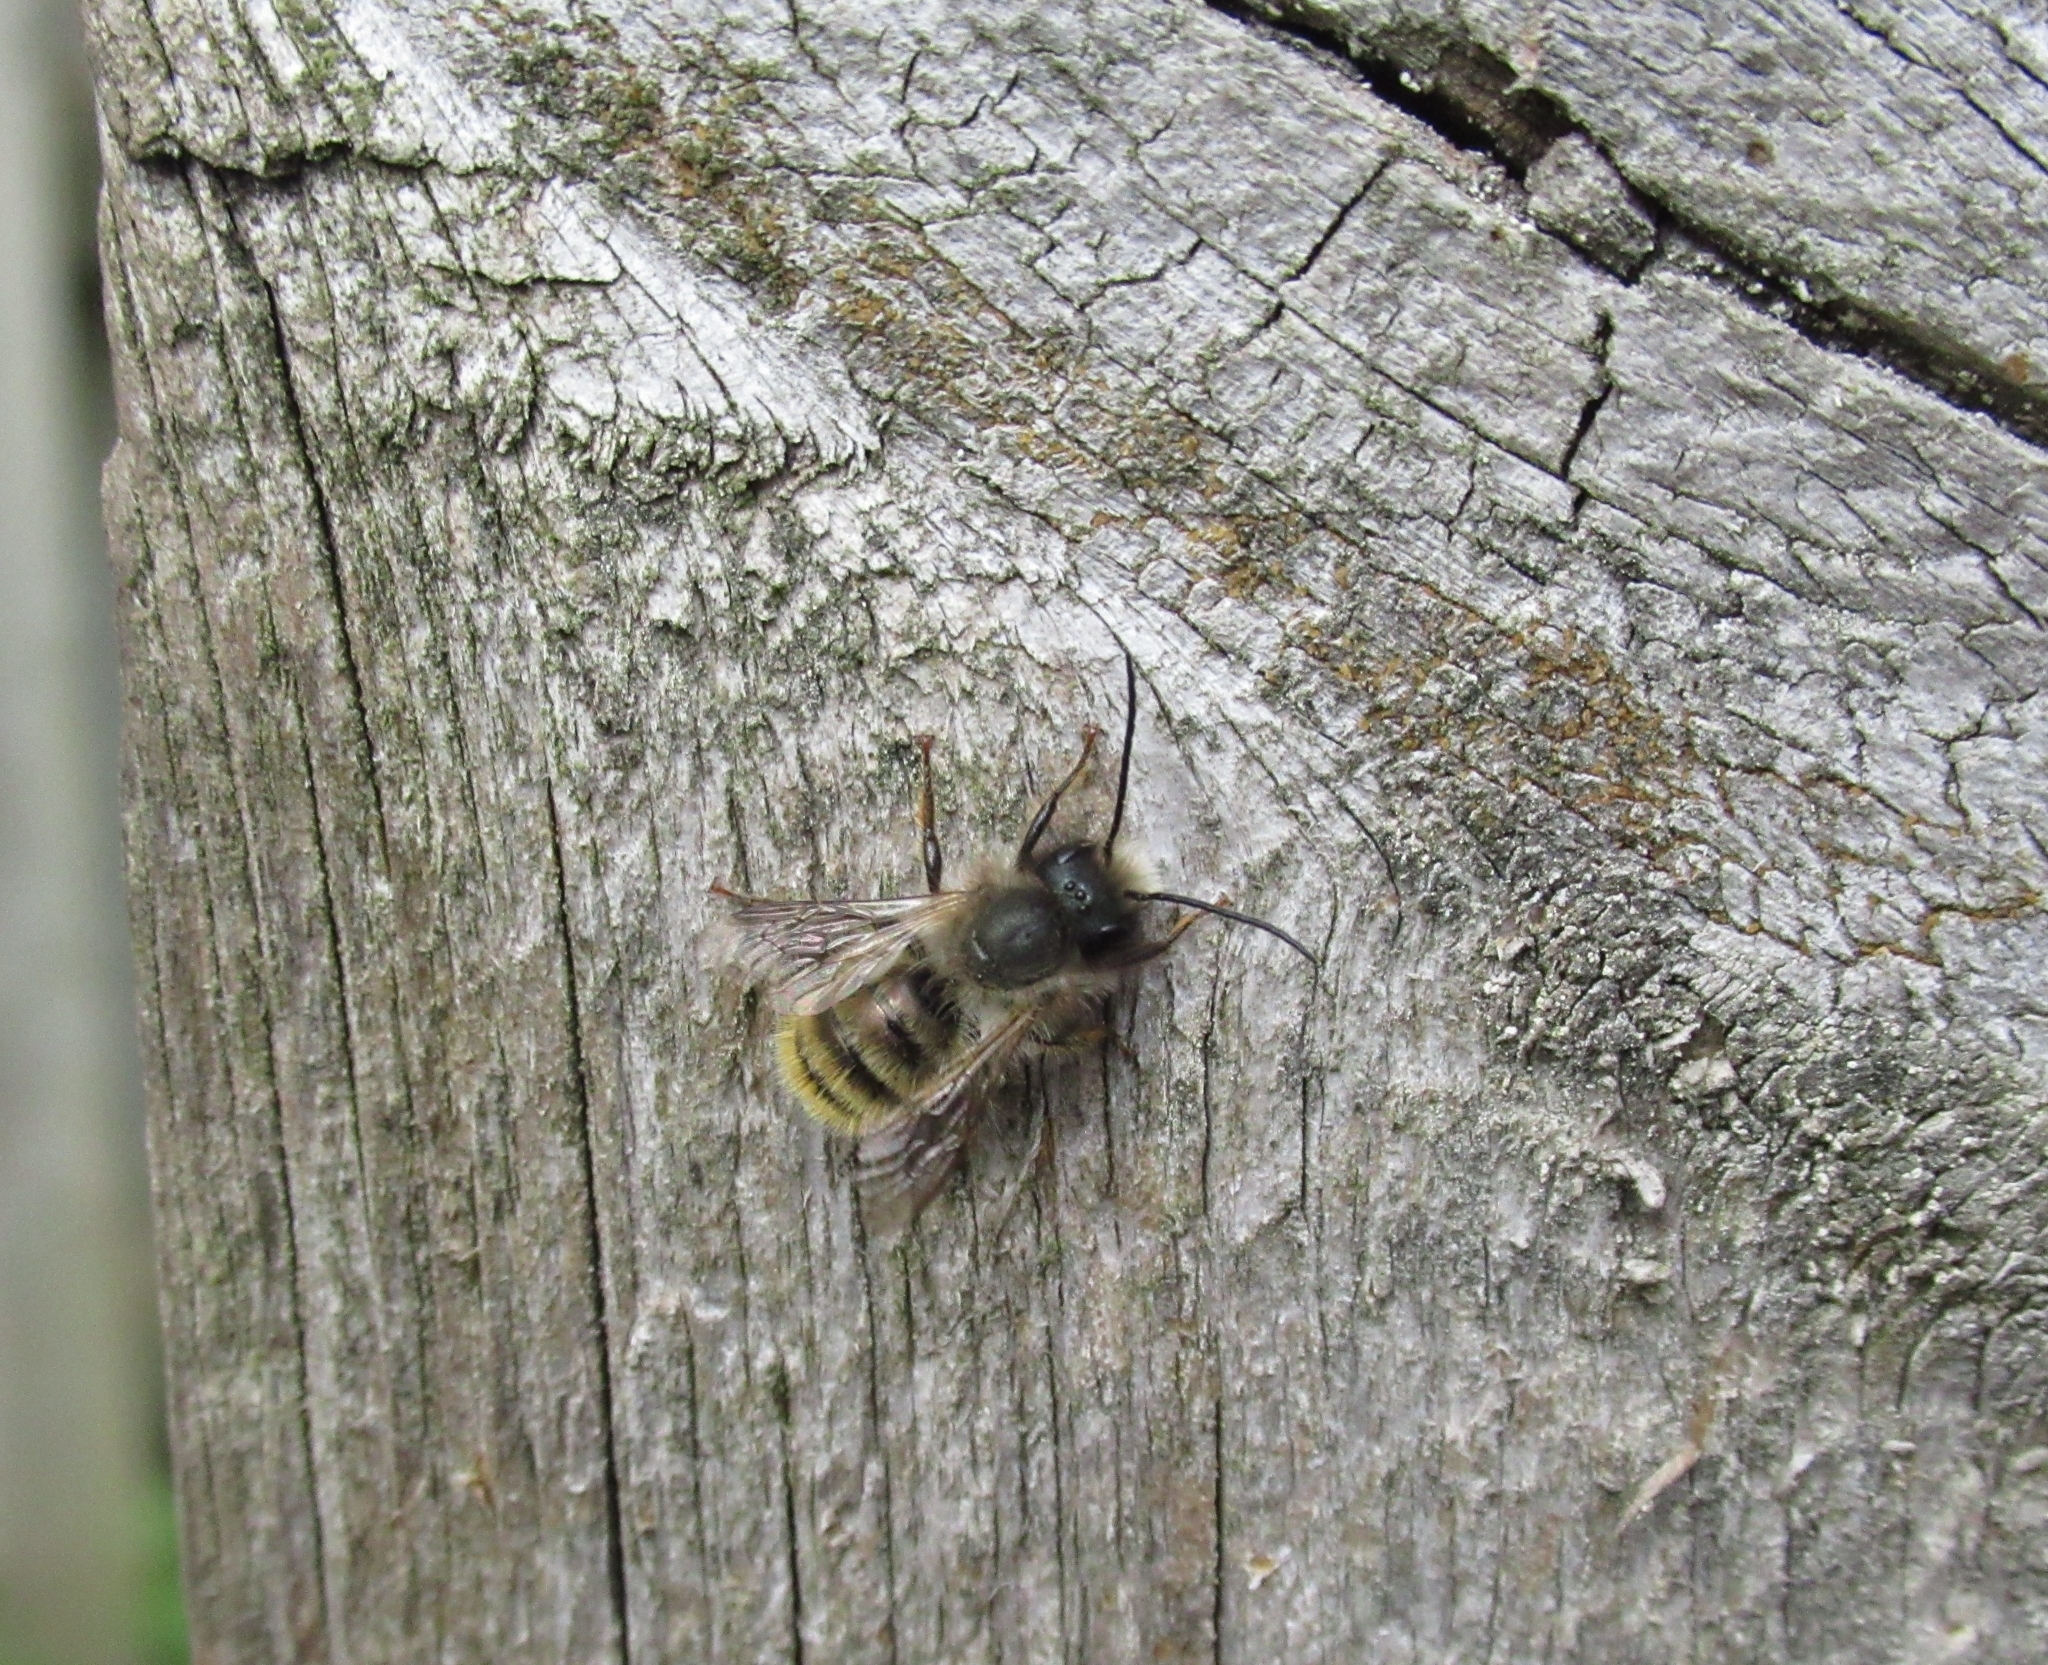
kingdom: Animalia
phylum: Arthropoda
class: Insecta
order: Hymenoptera
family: Megachilidae
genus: Osmia
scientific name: Osmia bicornis
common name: Red mason bee
